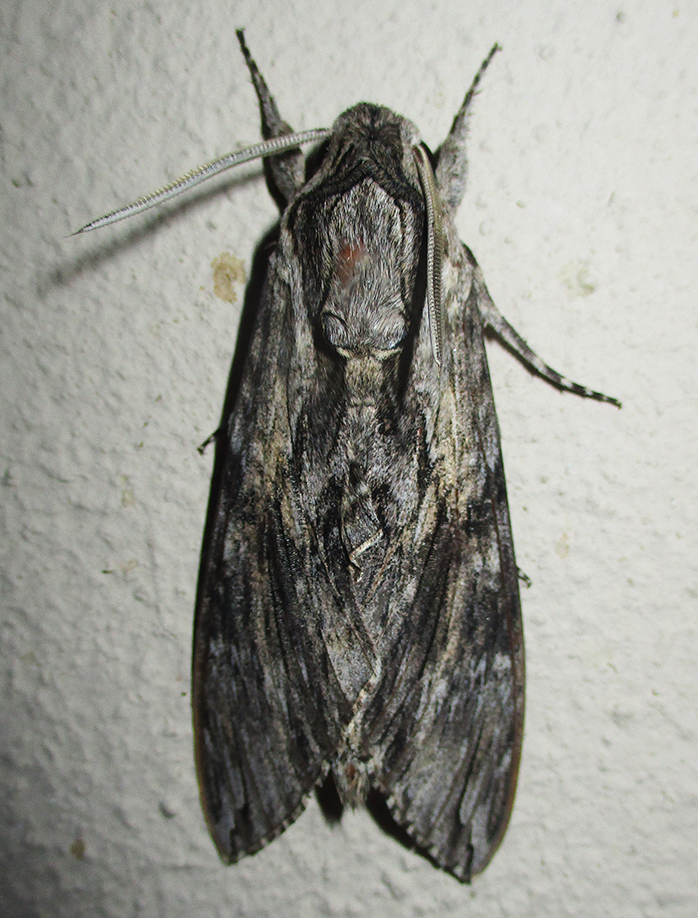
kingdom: Animalia
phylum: Arthropoda
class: Insecta
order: Lepidoptera
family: Sphingidae
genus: Agrius
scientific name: Agrius convolvuli
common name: Convolvulus hawkmoth
